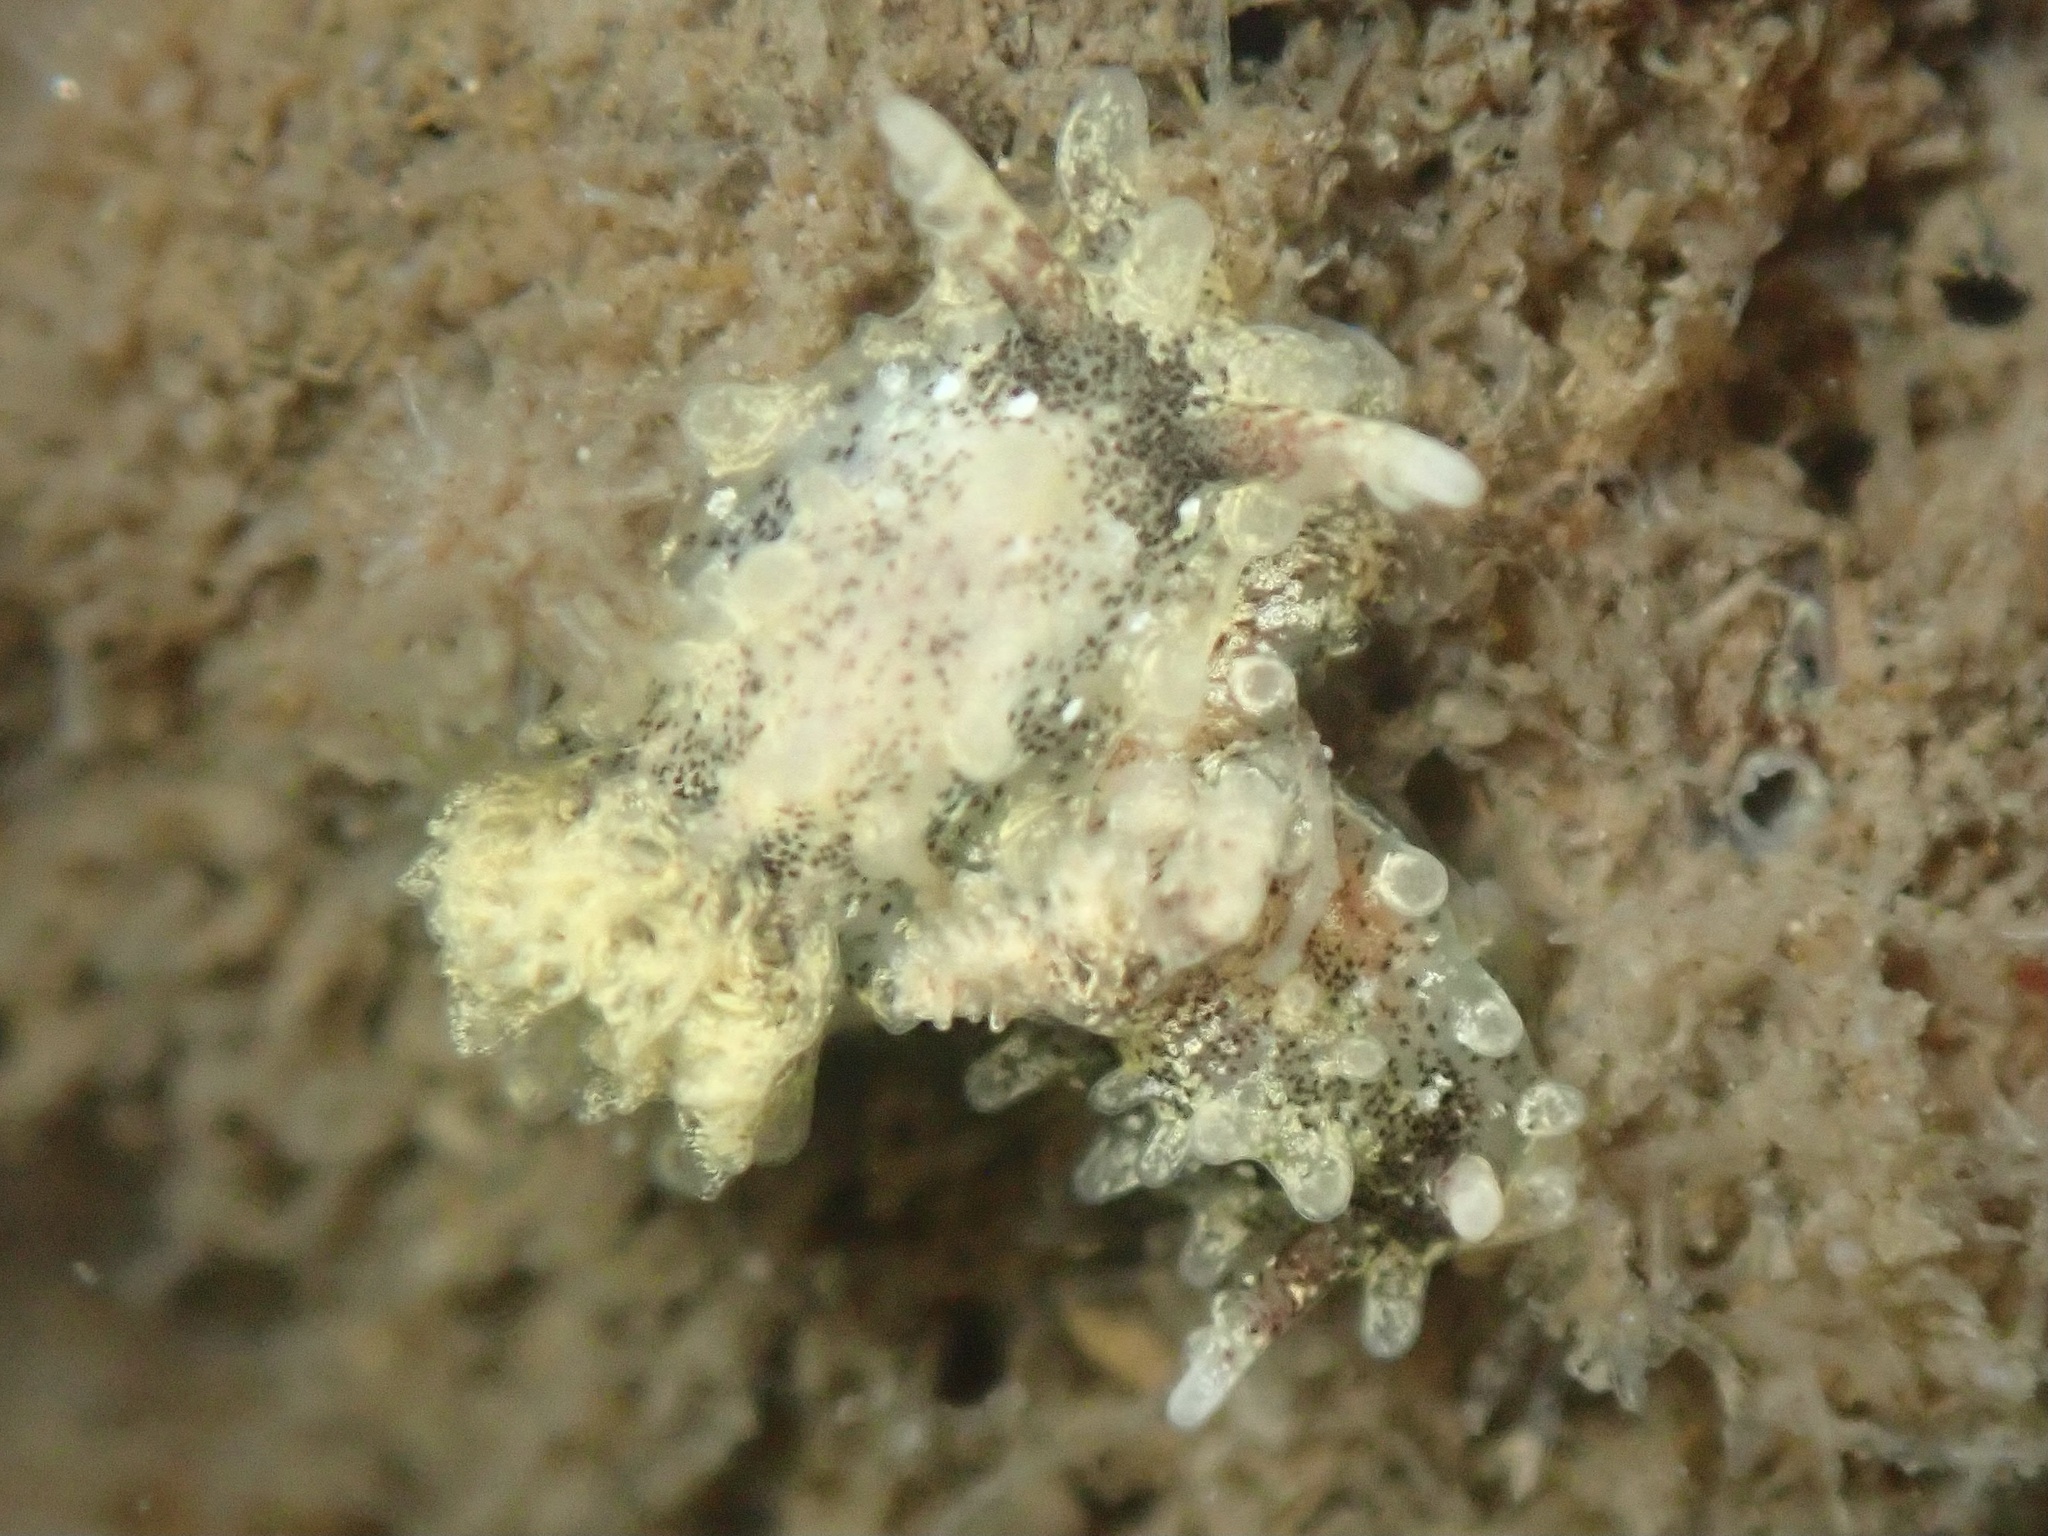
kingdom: Animalia
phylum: Mollusca
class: Gastropoda
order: Nudibranchia
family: Goniodorididae
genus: Okenia
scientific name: Okenia
